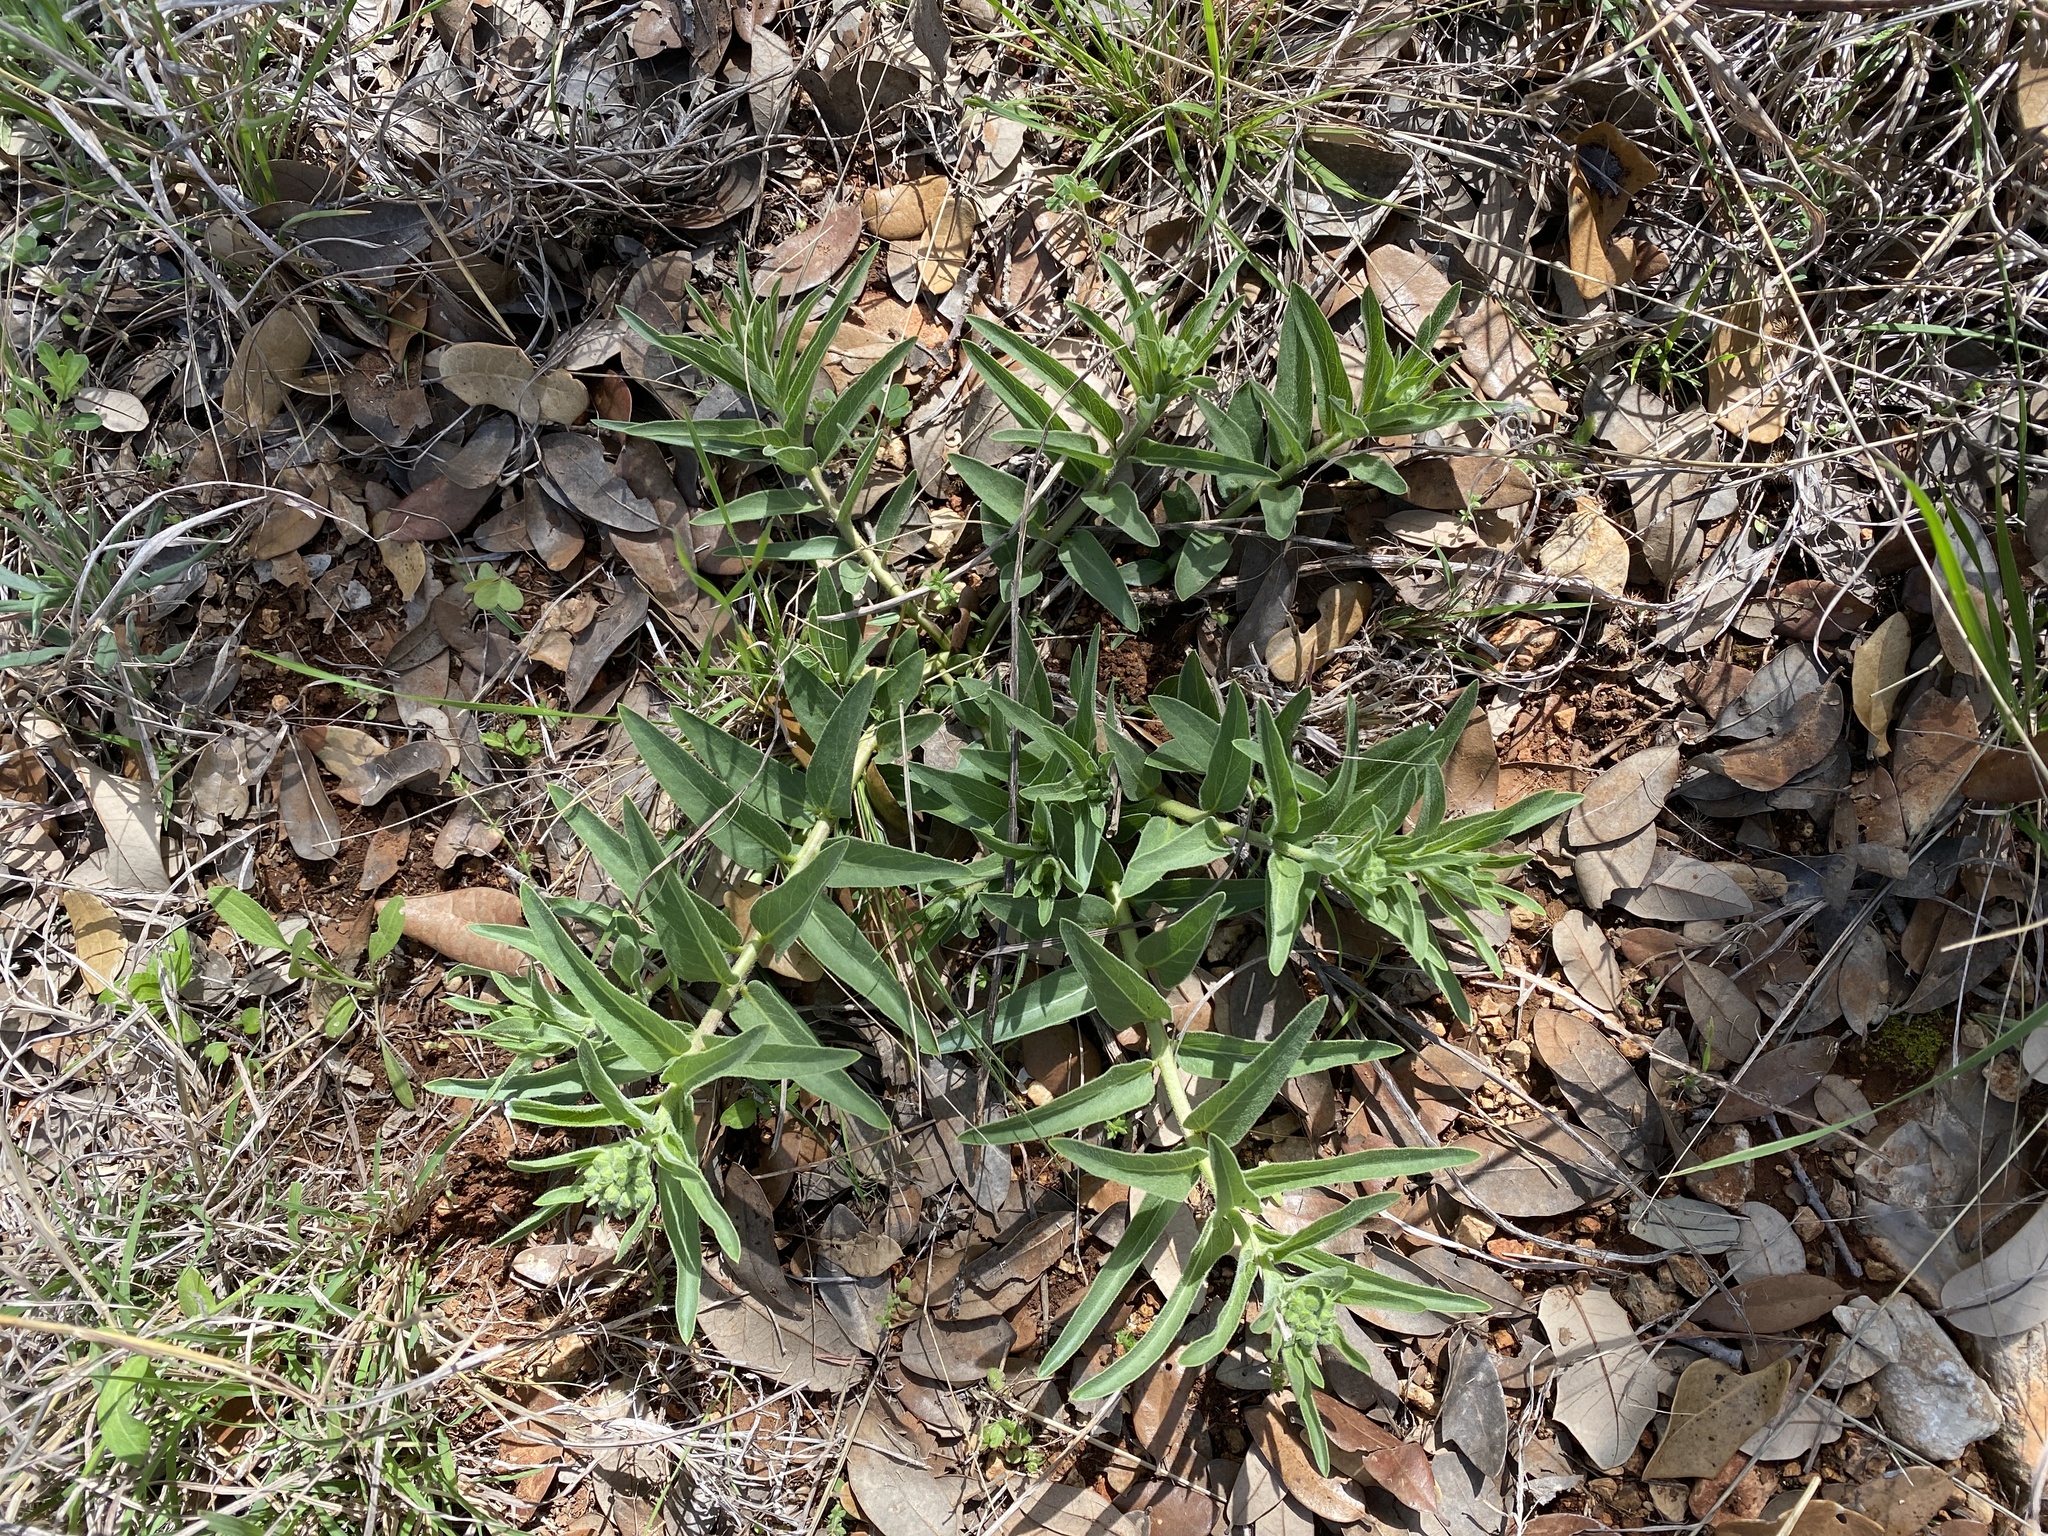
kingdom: Plantae
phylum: Tracheophyta
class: Magnoliopsida
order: Gentianales
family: Apocynaceae
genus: Asclepias
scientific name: Asclepias asperula
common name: Antelope horns
